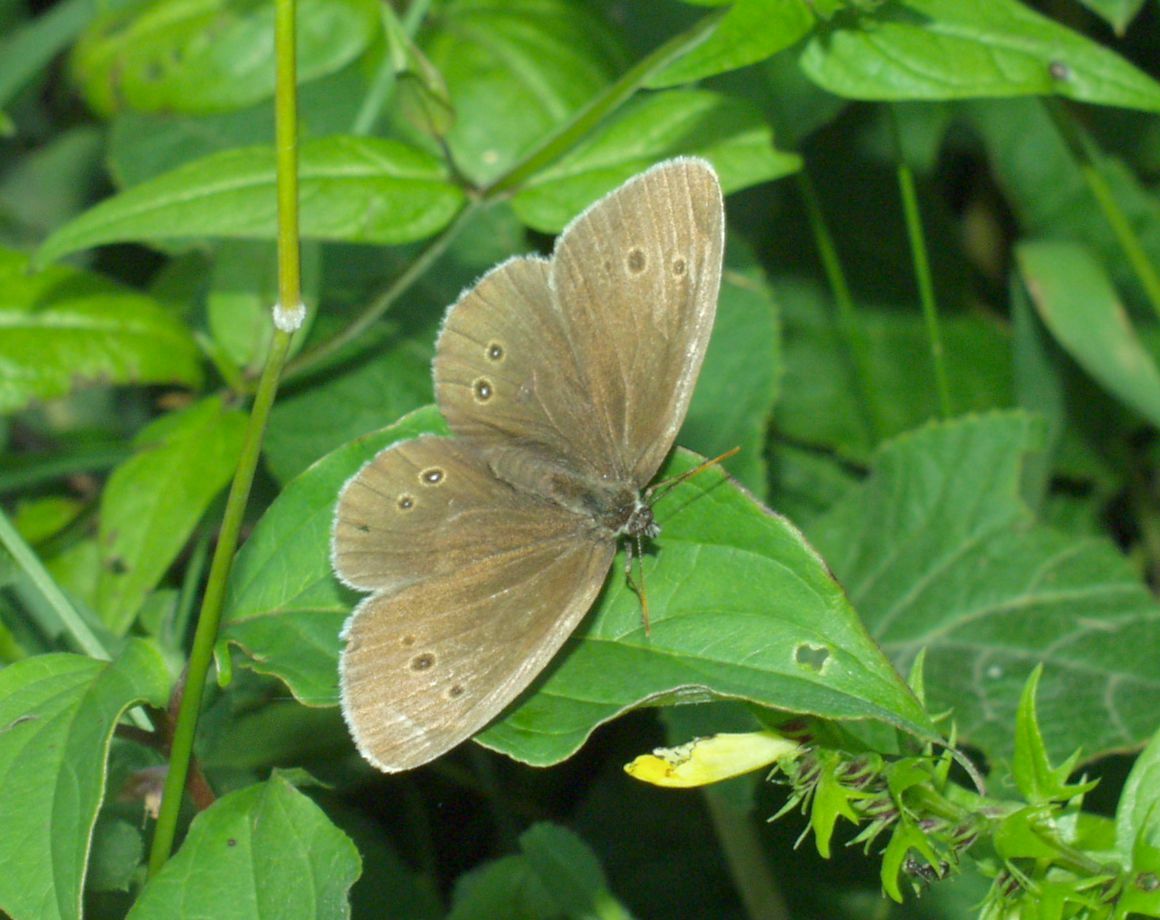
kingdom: Animalia
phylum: Arthropoda
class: Insecta
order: Lepidoptera
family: Nymphalidae
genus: Aphantopus
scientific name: Aphantopus hyperantus
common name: Ringlet
